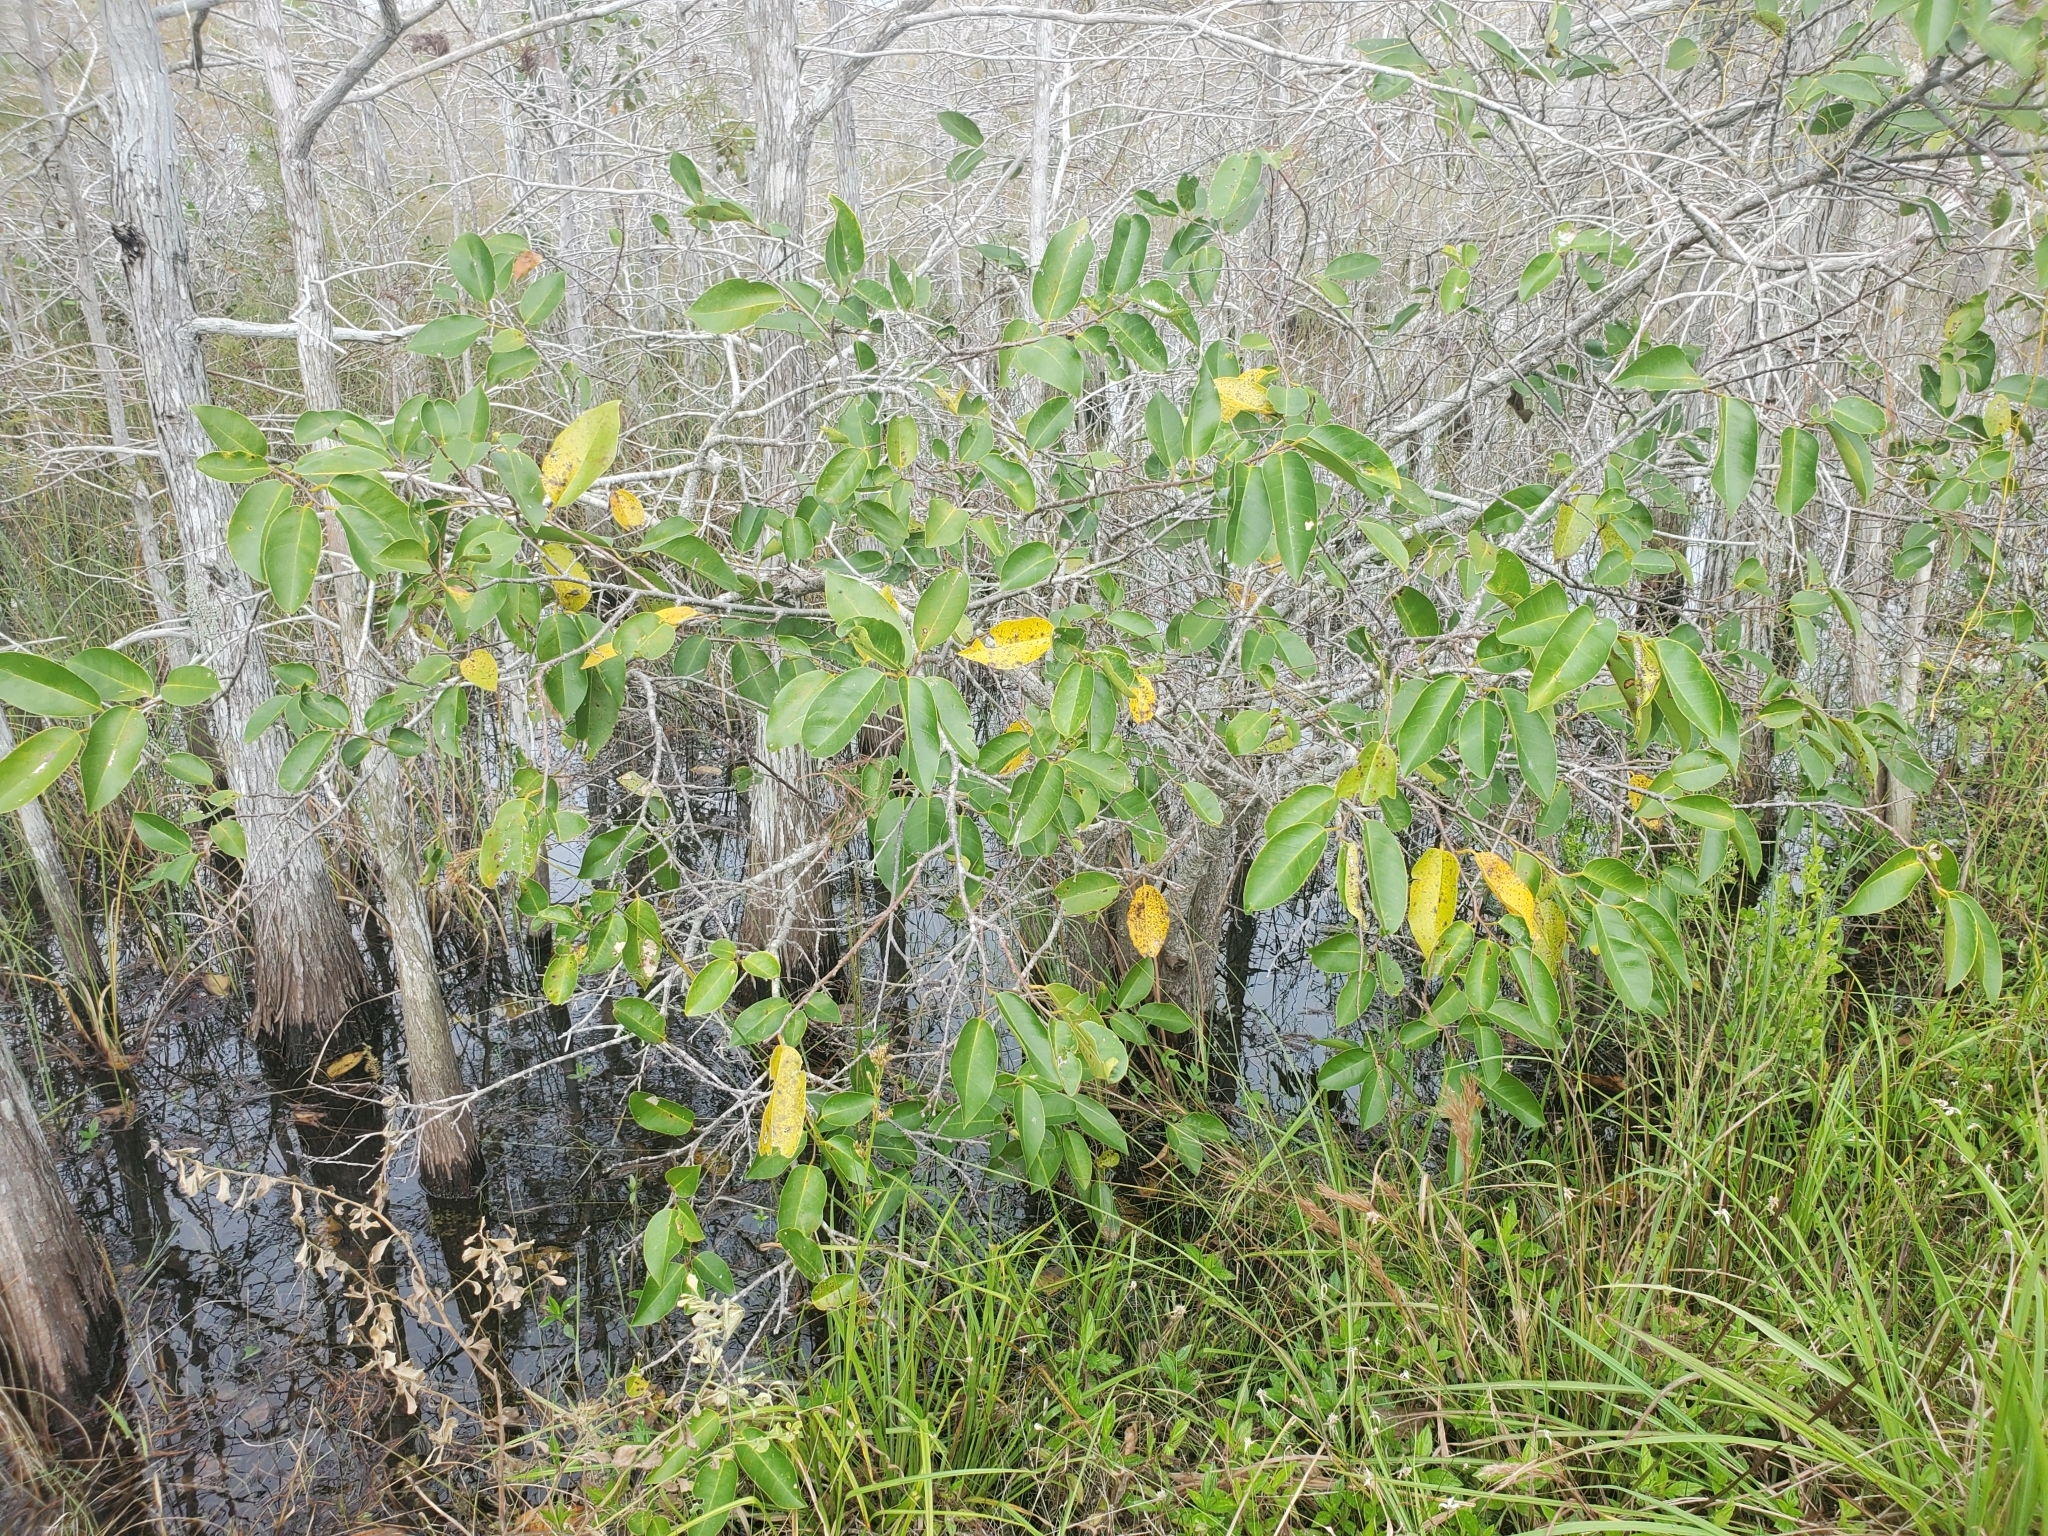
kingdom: Plantae
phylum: Tracheophyta
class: Magnoliopsida
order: Magnoliales
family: Annonaceae
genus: Annona
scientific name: Annona glabra
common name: Monkey apple
